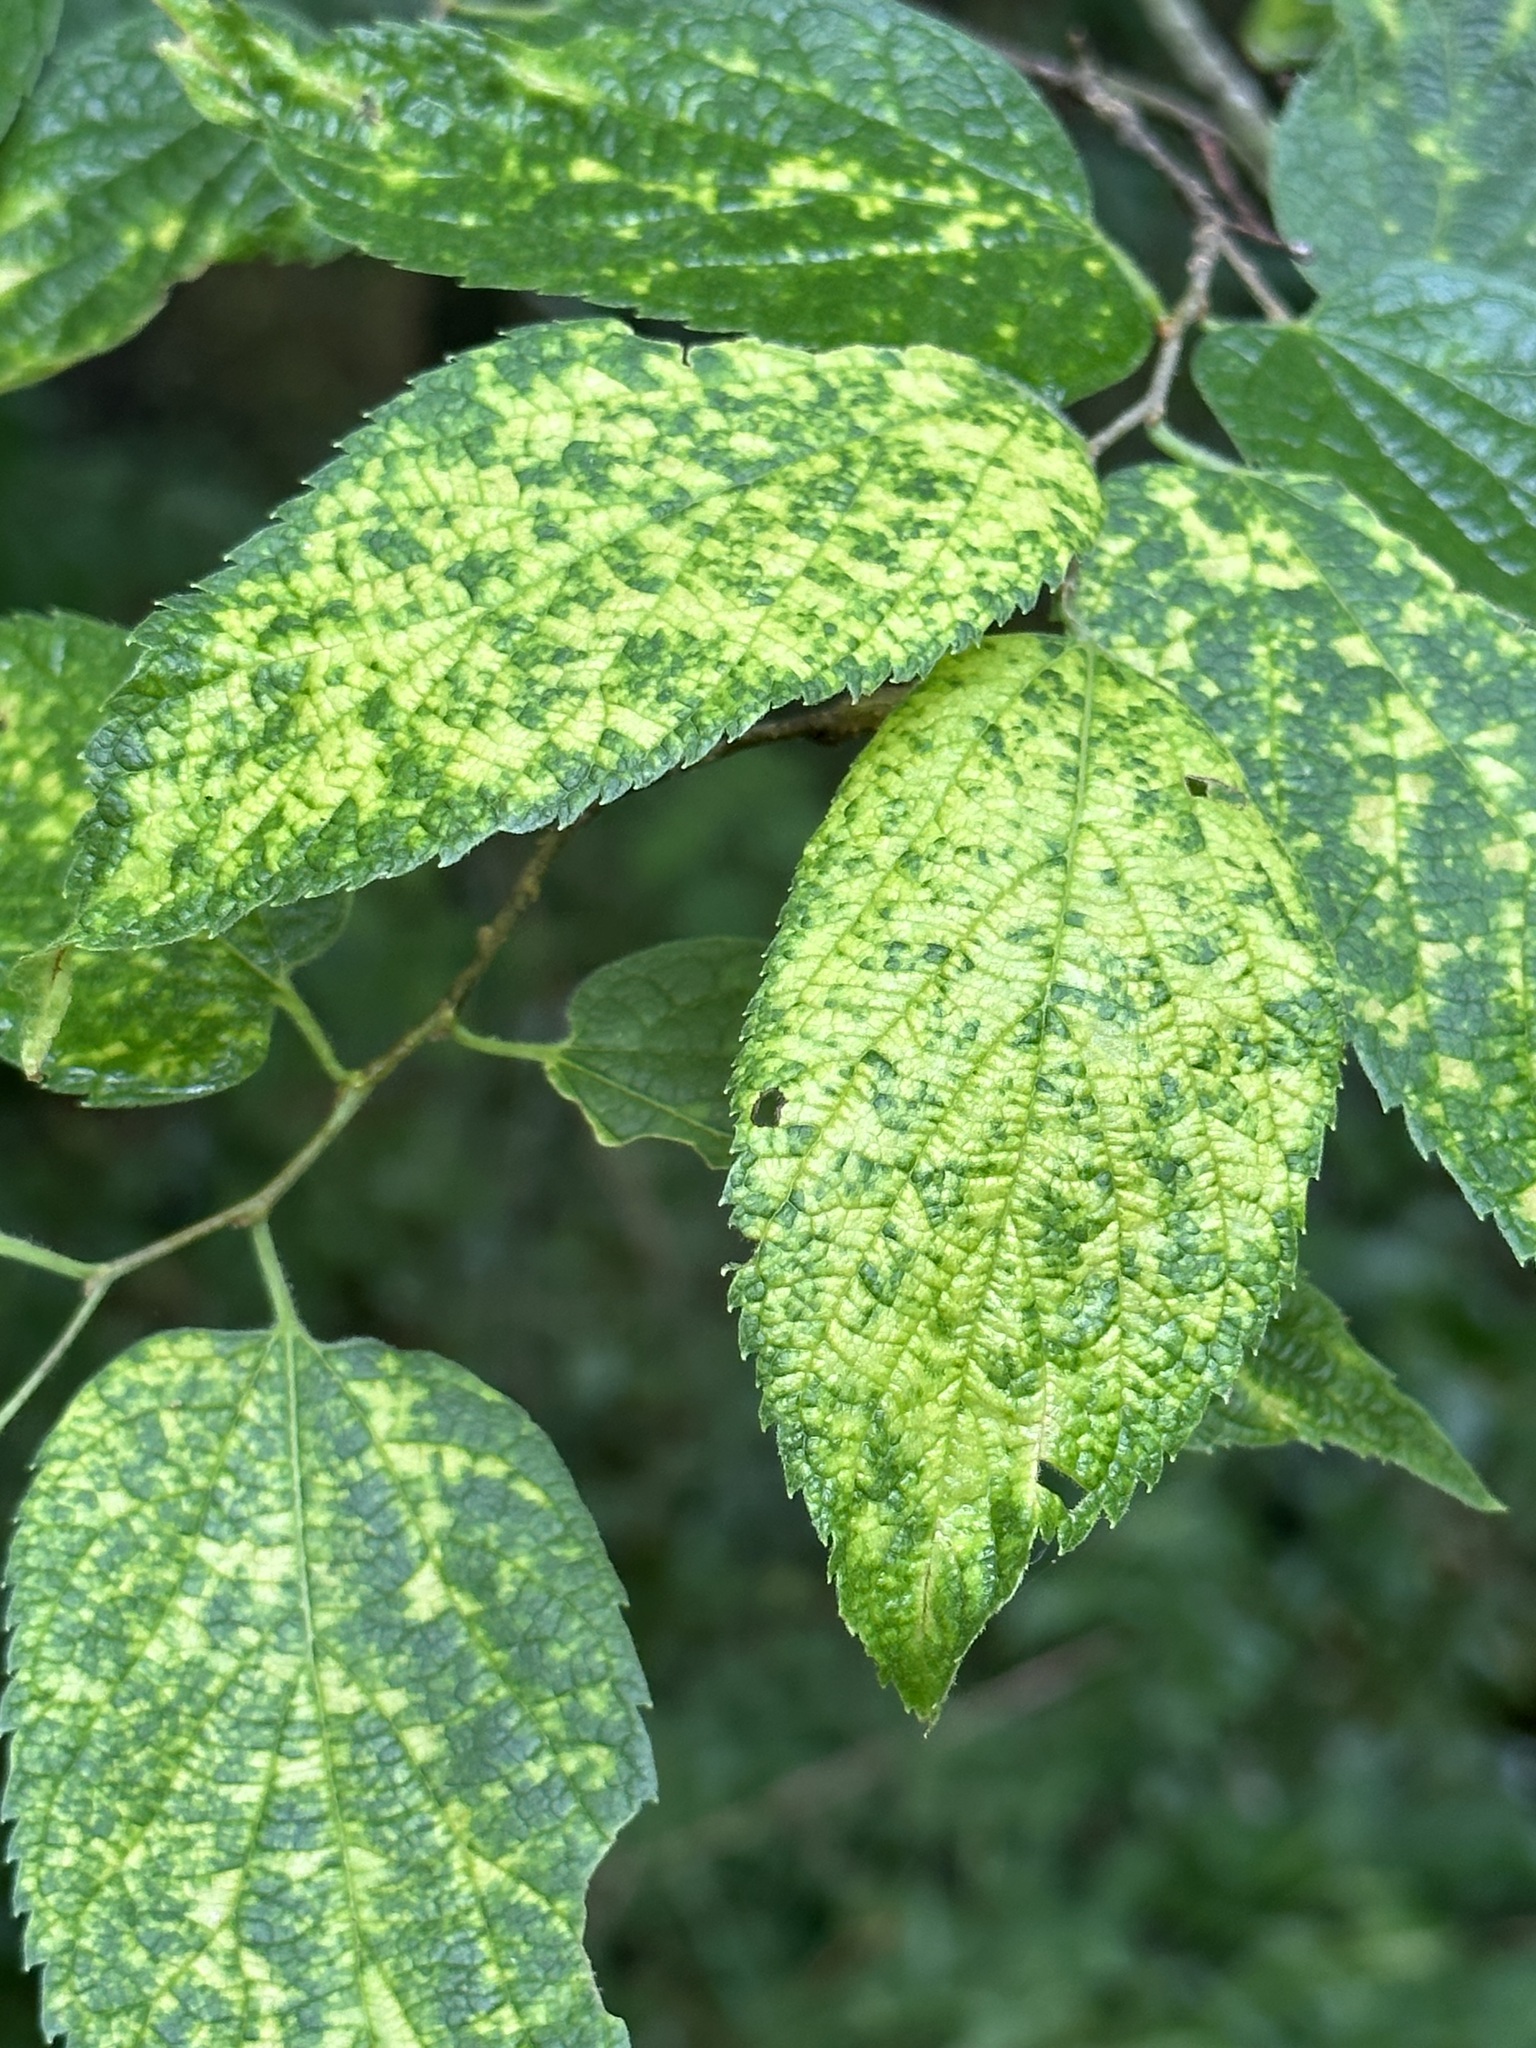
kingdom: Viruses
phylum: Kitrinoviricota
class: Alsuviricetes
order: Martellivirales
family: Closteroviridae
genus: Ampelovirus
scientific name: Ampelovirus
